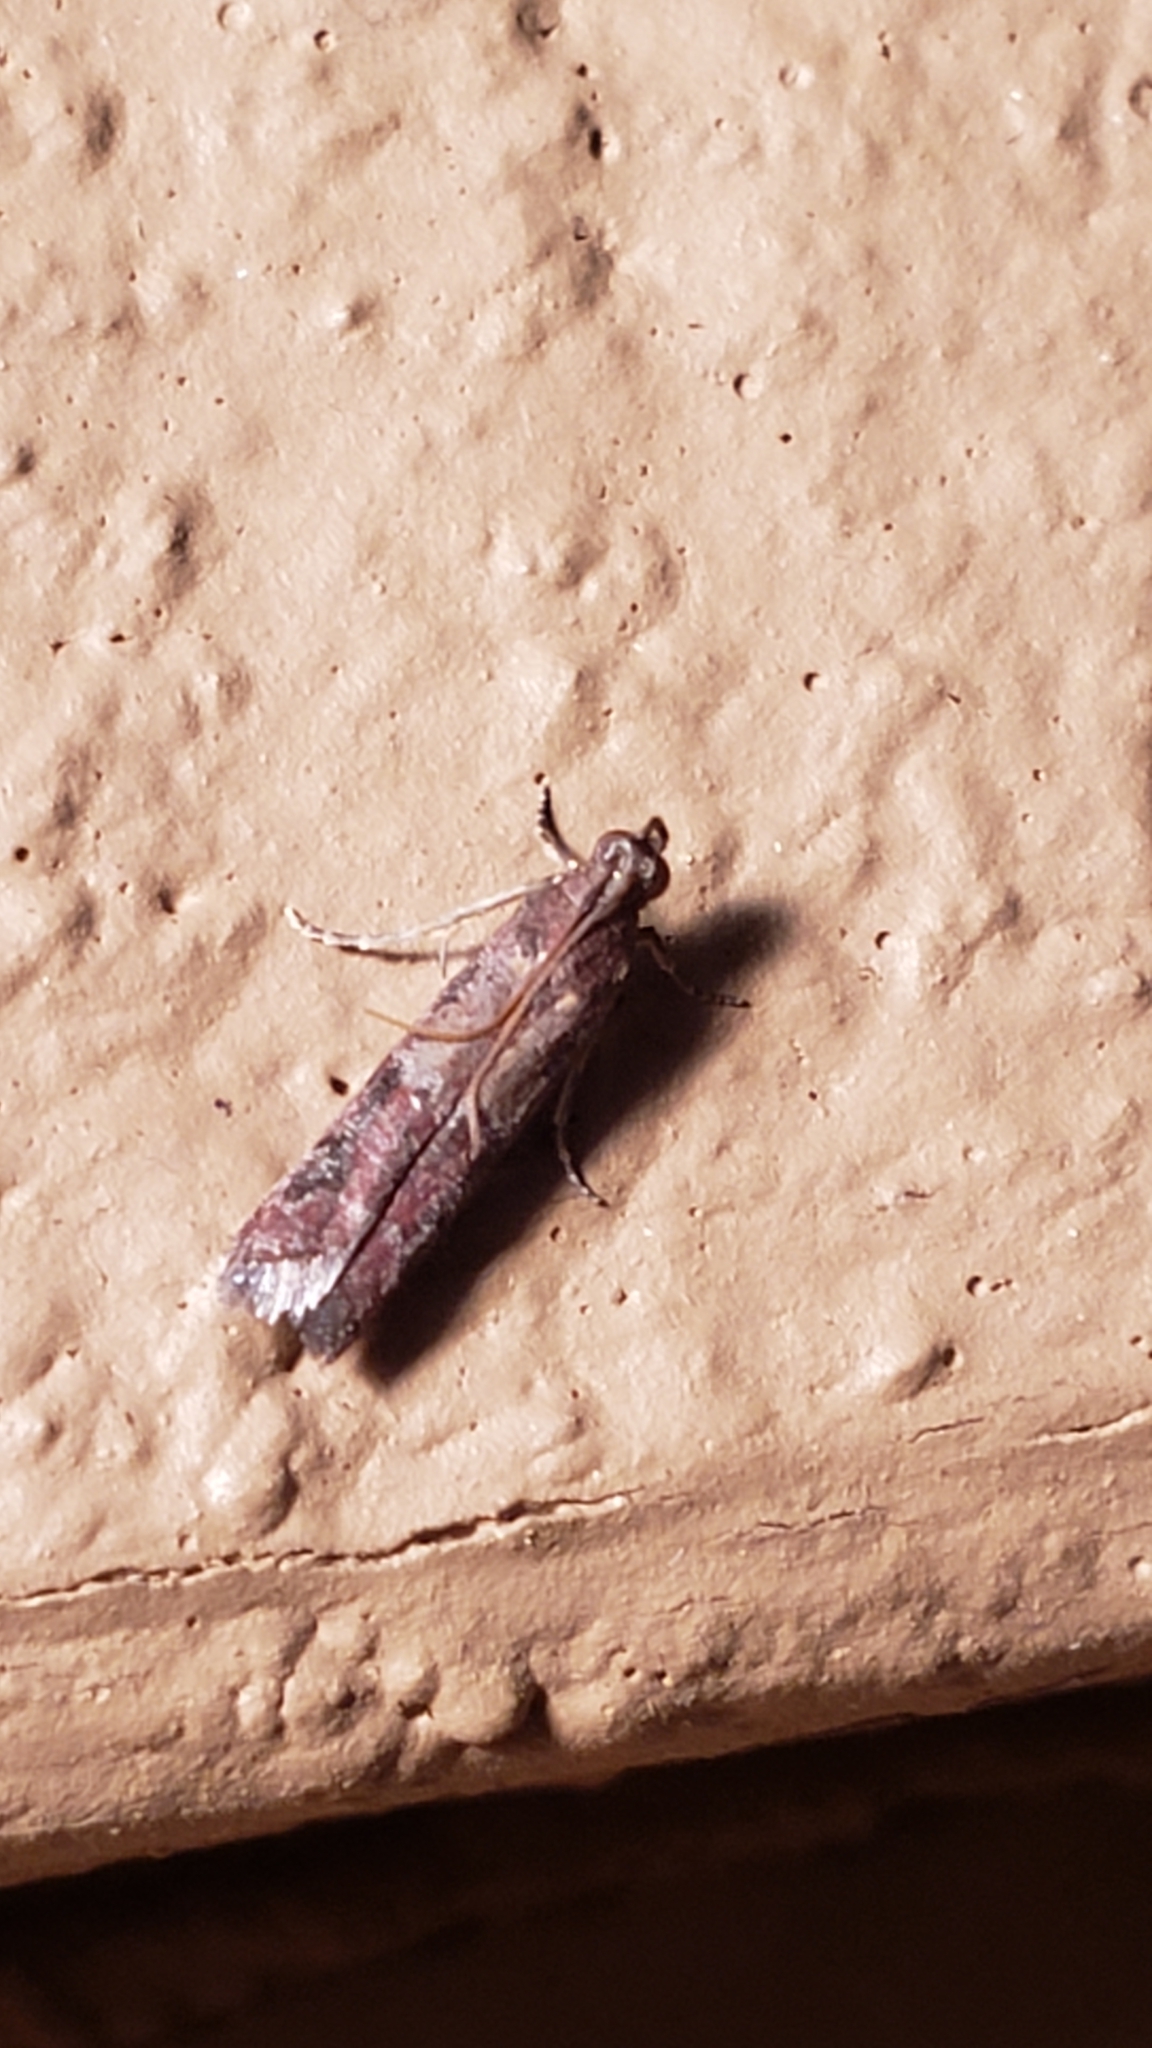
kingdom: Animalia
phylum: Arthropoda
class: Insecta
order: Lepidoptera
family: Pyralidae
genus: Ephestiodes
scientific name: Ephestiodes infimella
